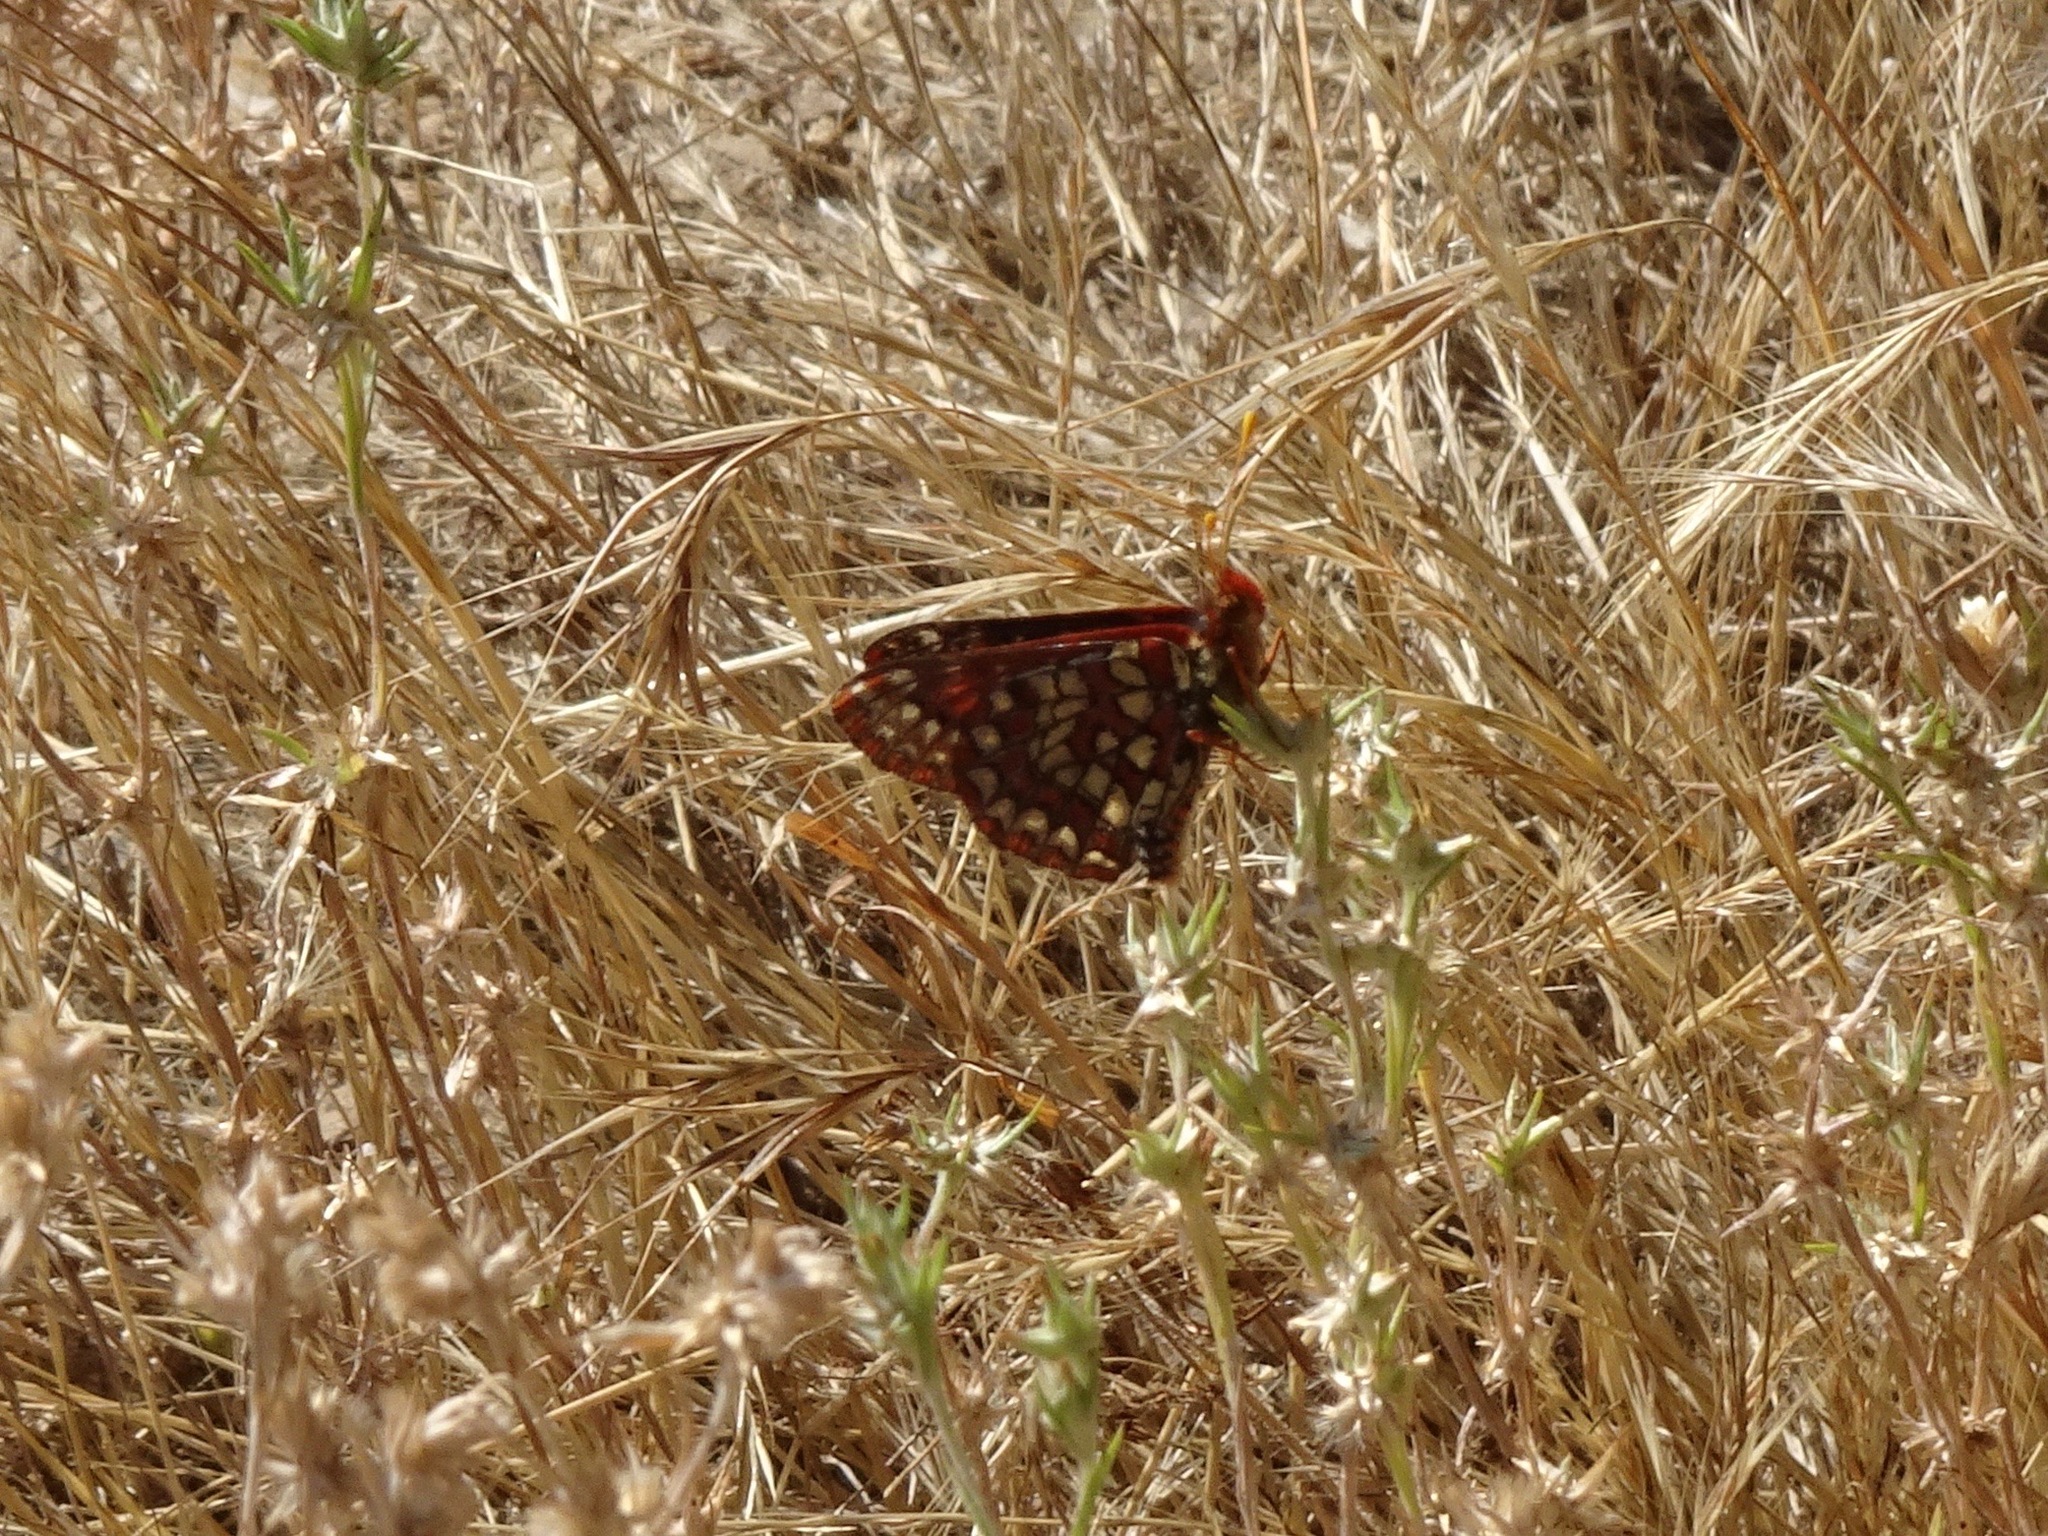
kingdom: Animalia
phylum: Arthropoda
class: Insecta
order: Lepidoptera
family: Nymphalidae
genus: Occidryas
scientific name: Occidryas chalcedona
